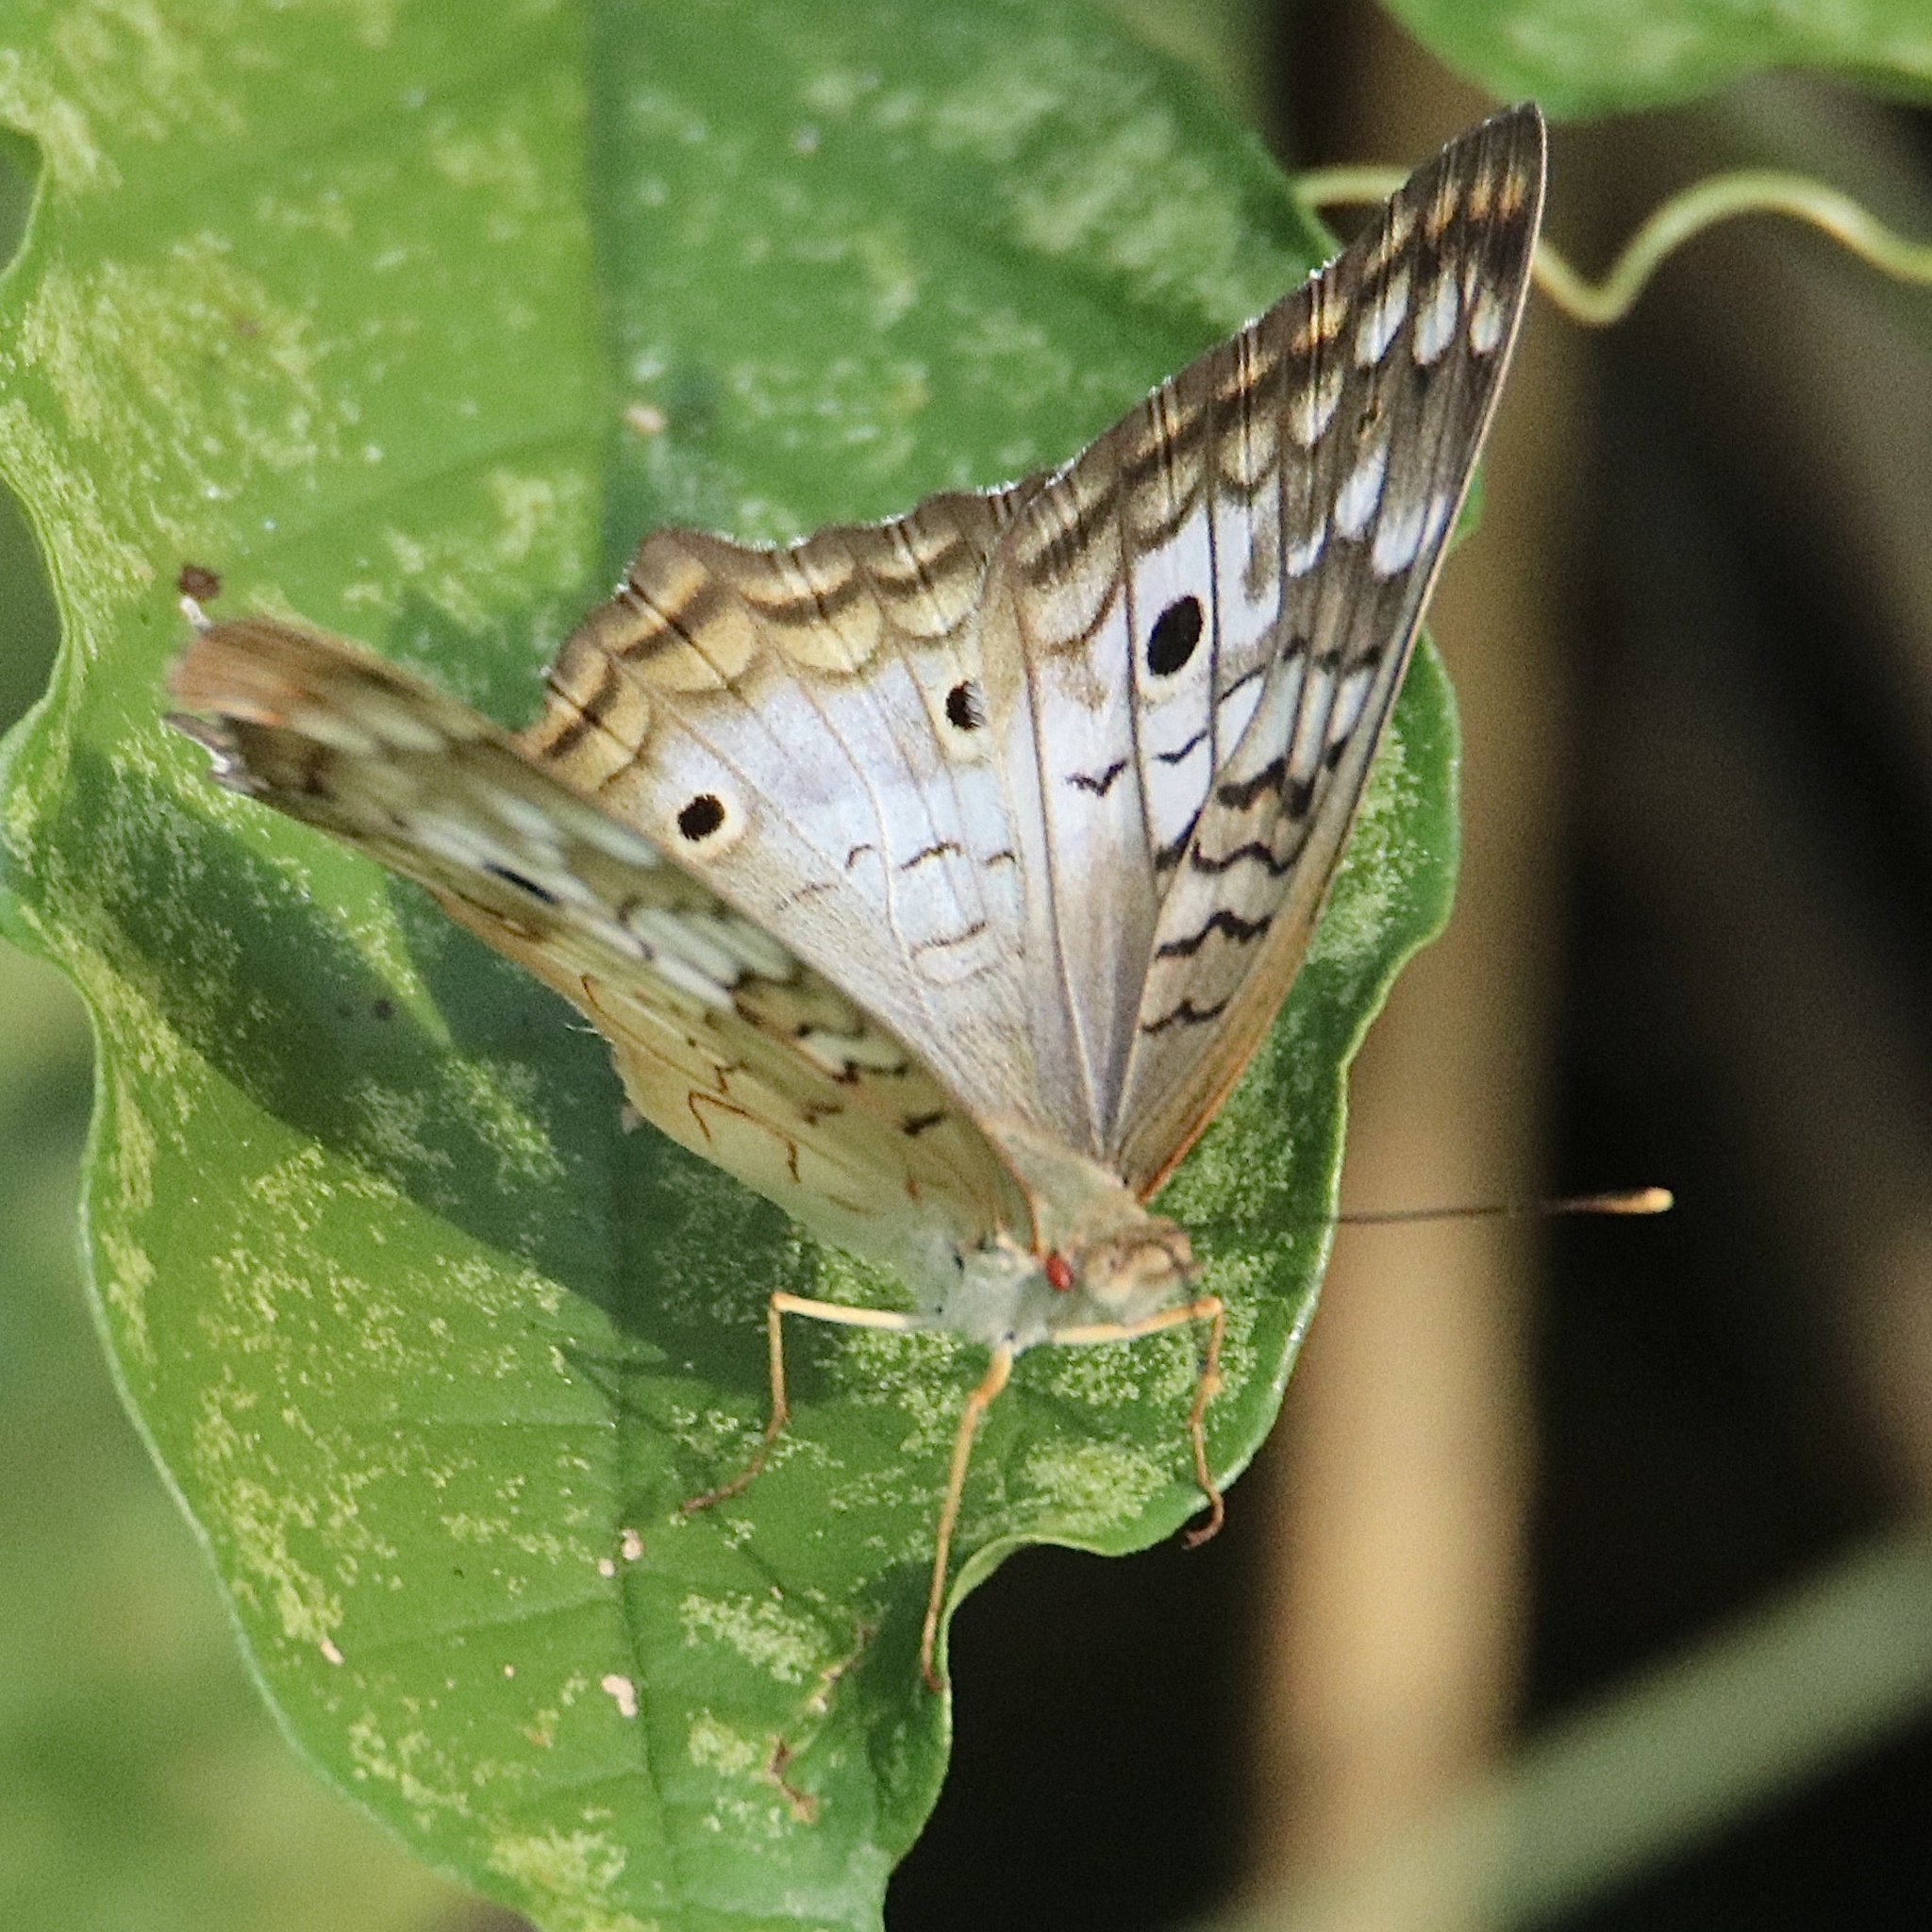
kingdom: Animalia
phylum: Arthropoda
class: Insecta
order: Lepidoptera
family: Nymphalidae
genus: Anartia
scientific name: Anartia jatrophae
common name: White peacock
